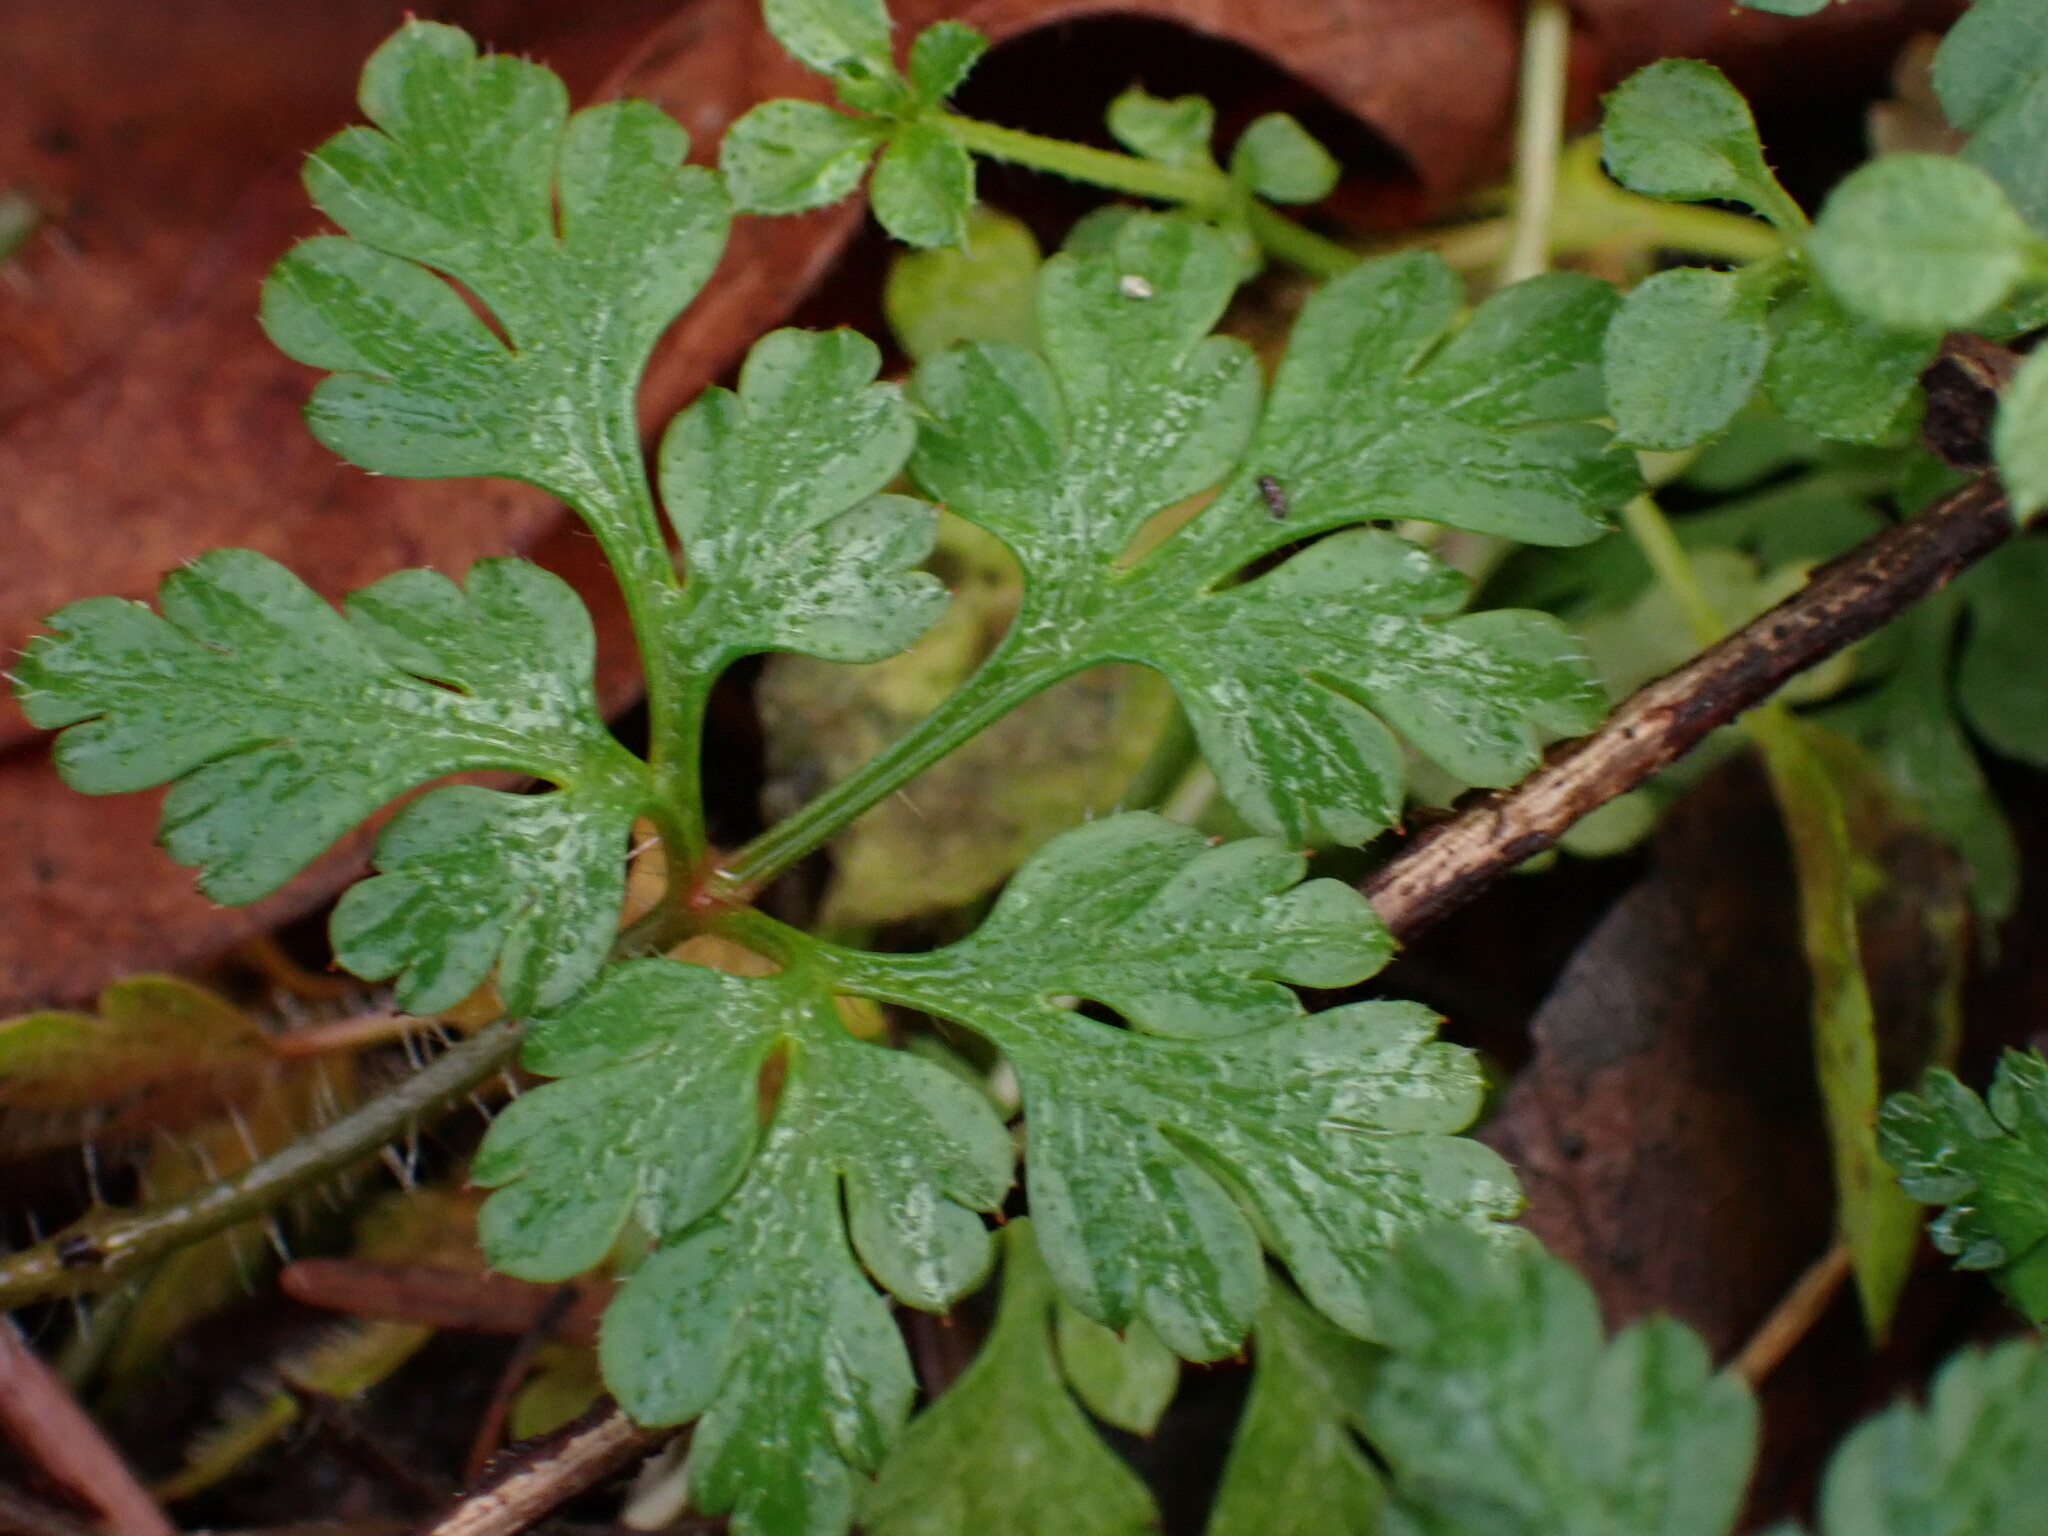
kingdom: Plantae
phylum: Tracheophyta
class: Magnoliopsida
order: Geraniales
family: Geraniaceae
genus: Geranium
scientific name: Geranium robertianum
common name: Herb-robert
